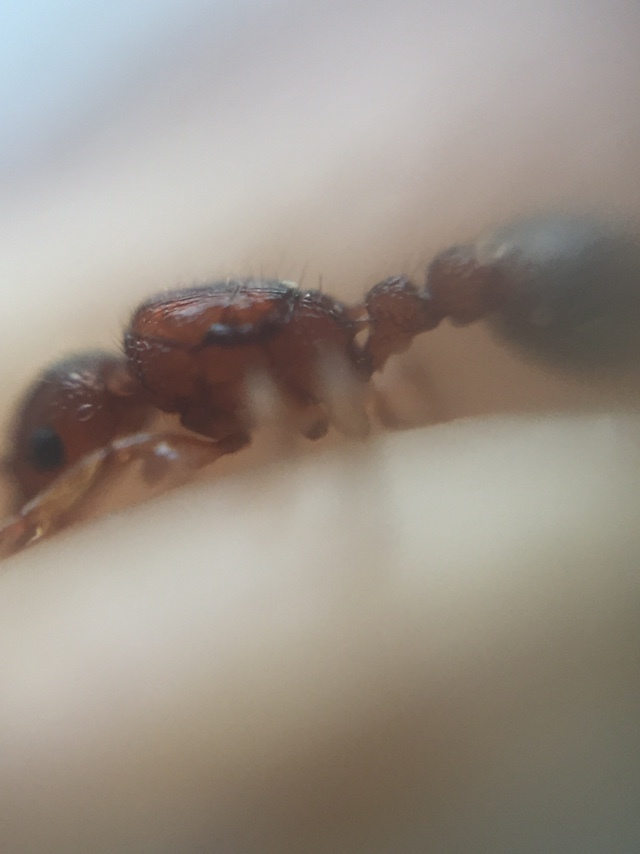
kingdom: Animalia
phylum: Arthropoda
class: Insecta
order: Hymenoptera
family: Formicidae
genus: Tetramorium
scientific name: Tetramorium bicarinatum
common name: Guinea ant
